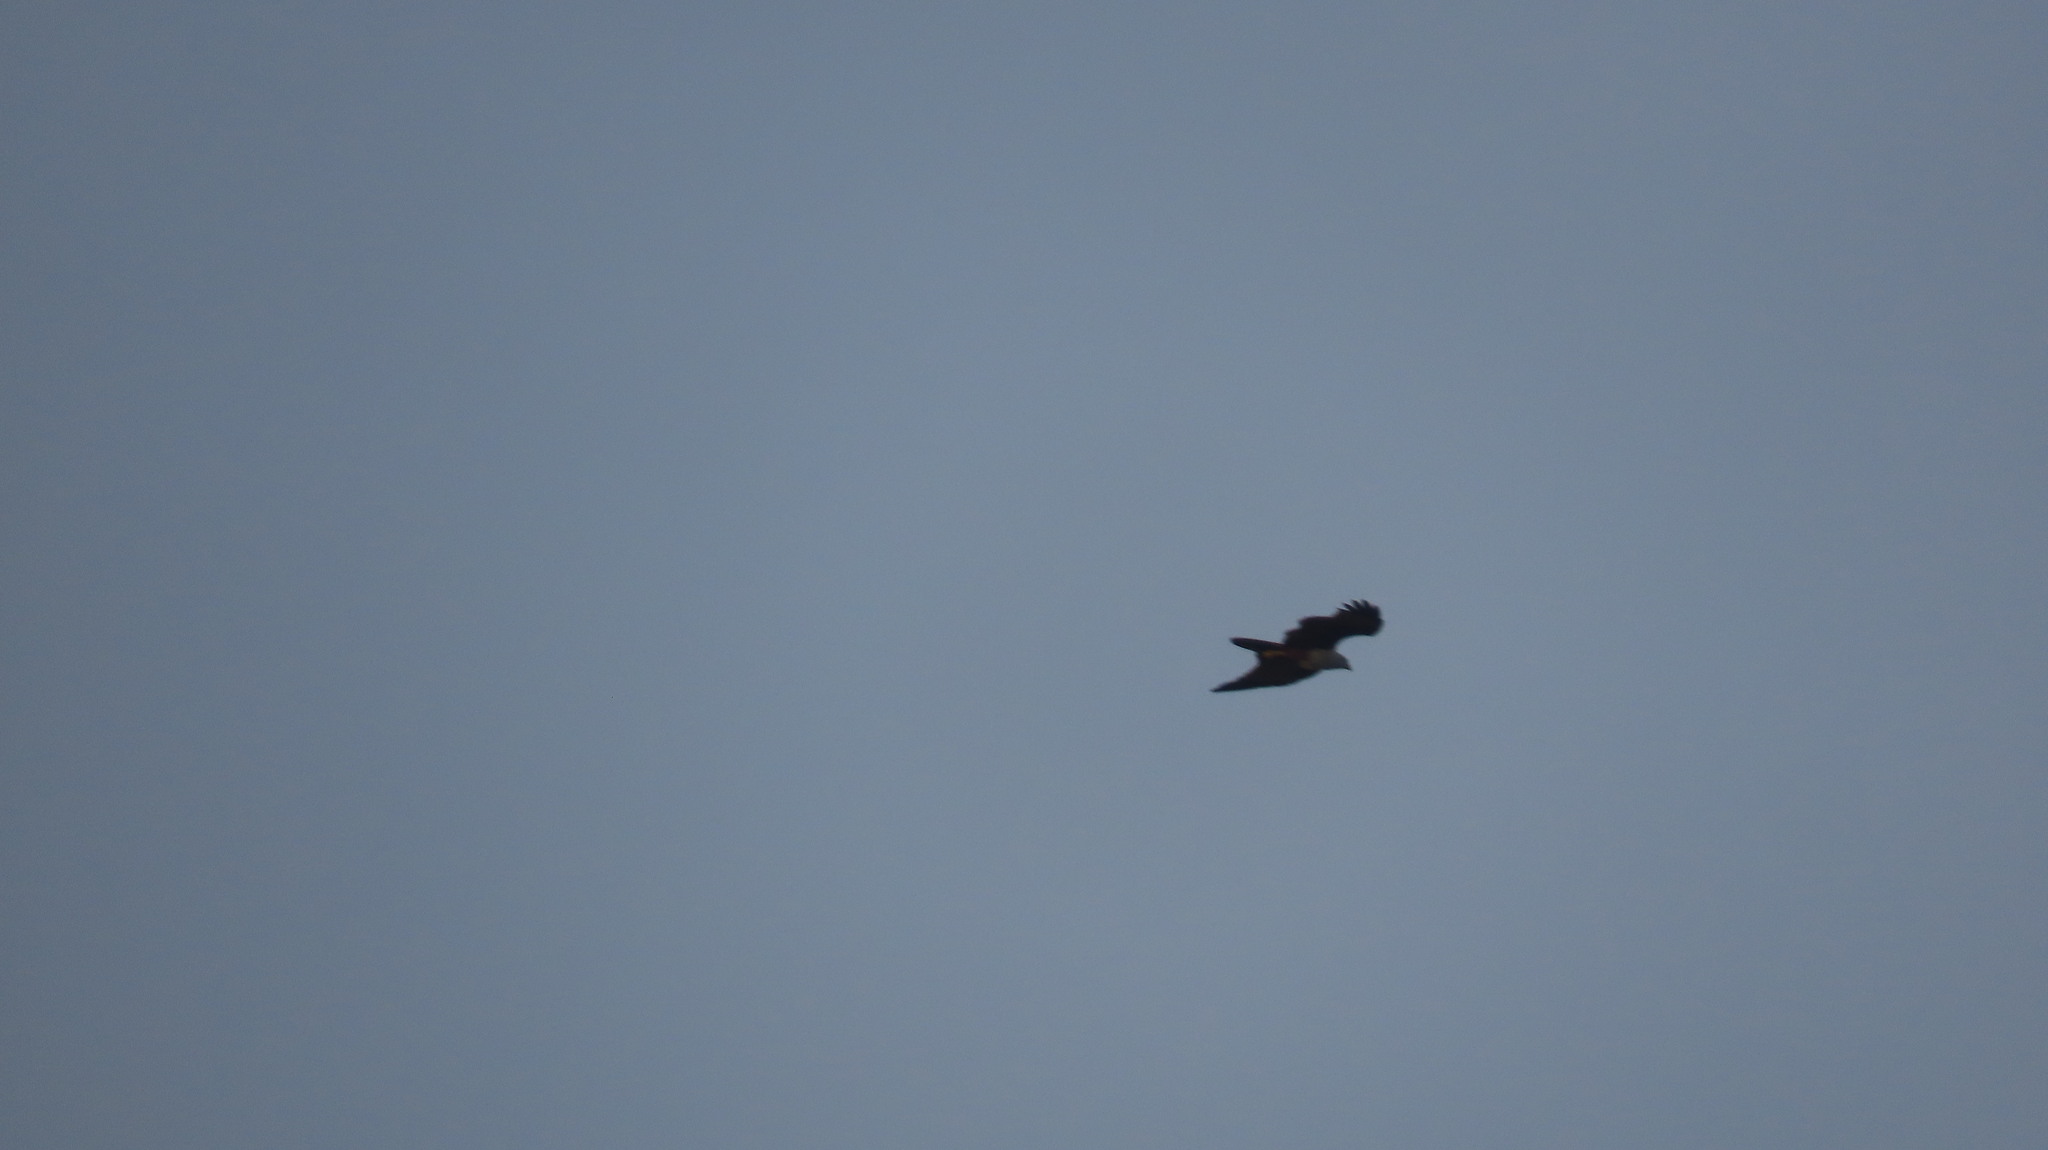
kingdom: Animalia
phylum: Chordata
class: Aves
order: Accipitriformes
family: Accipitridae
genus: Haliastur
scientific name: Haliastur indus
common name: Brahminy kite
